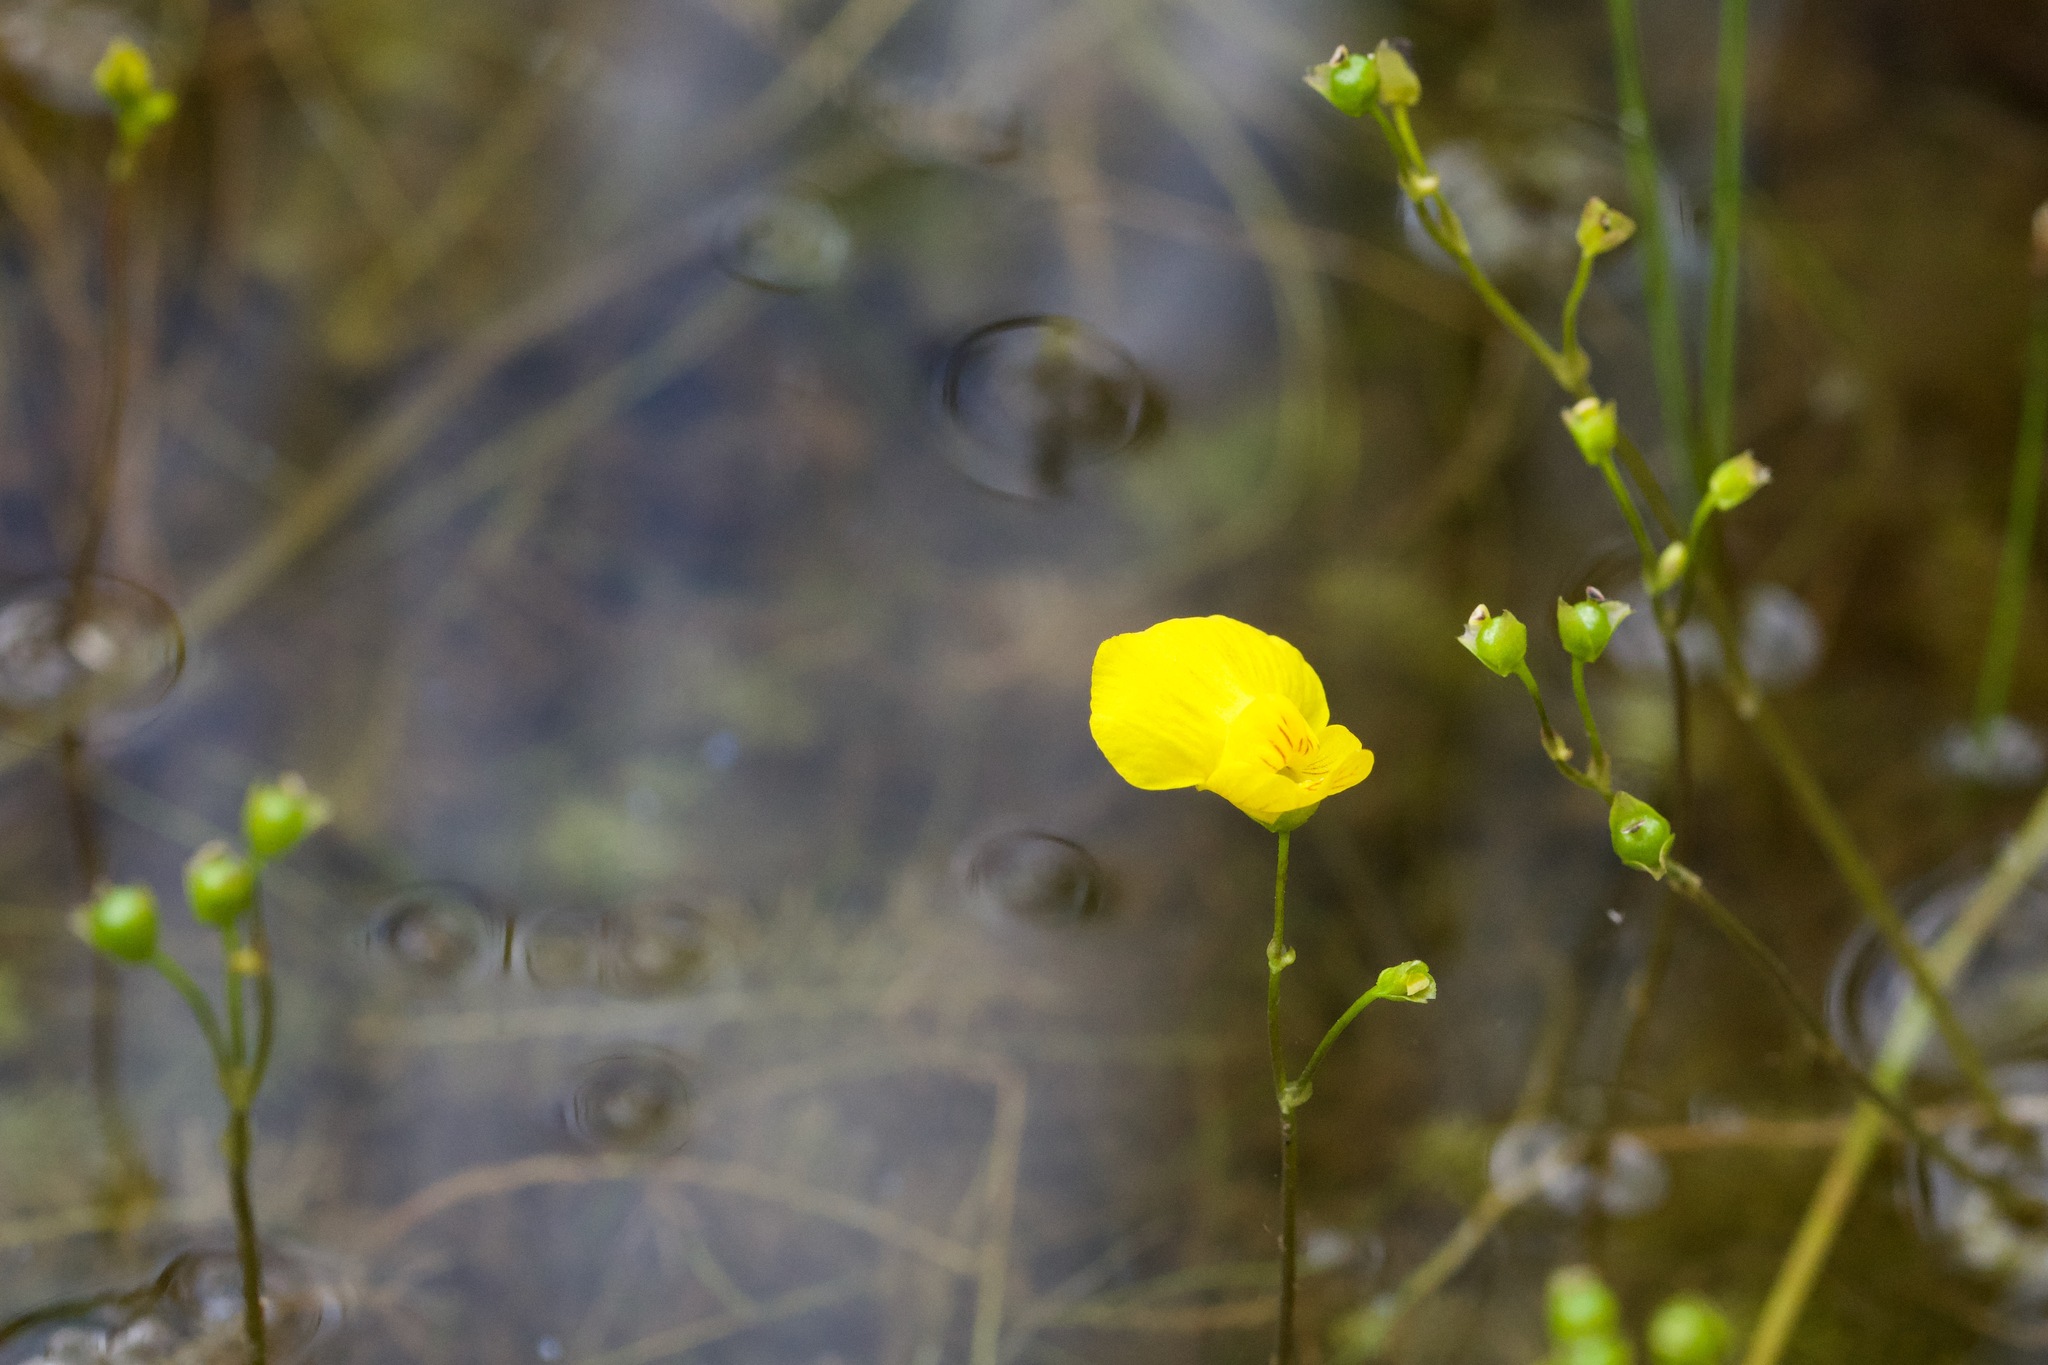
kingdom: Plantae
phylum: Tracheophyta
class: Magnoliopsida
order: Lamiales
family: Lentibulariaceae
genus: Utricularia
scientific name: Utricularia intermedia
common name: Intermediate bladderwort
